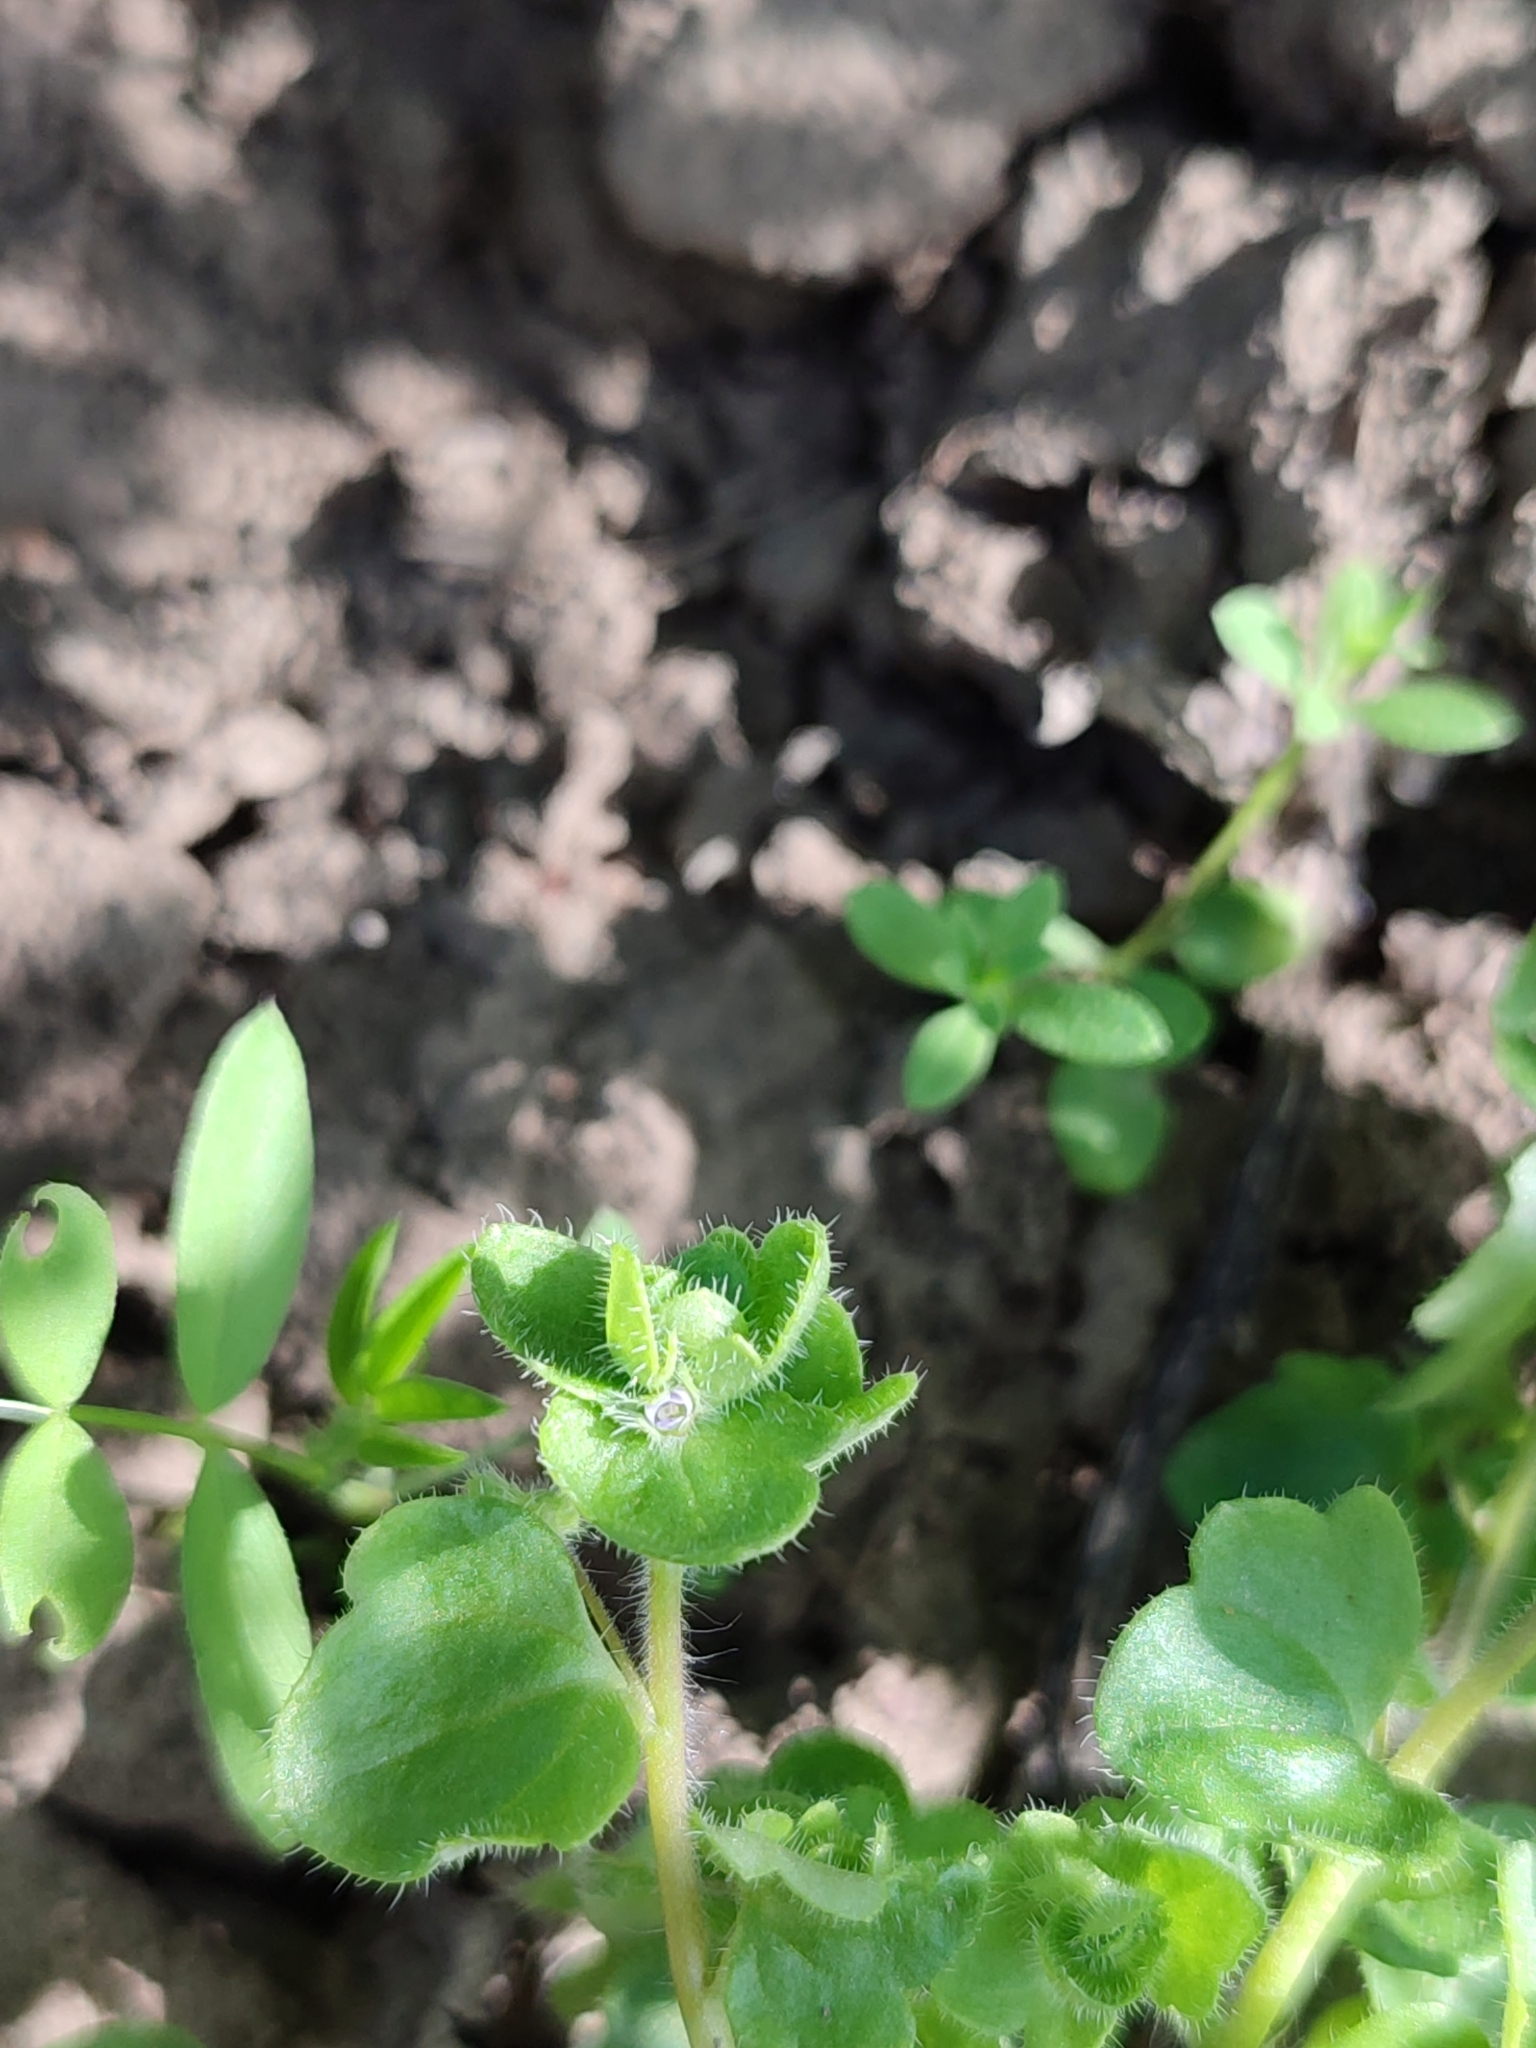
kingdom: Plantae
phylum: Tracheophyta
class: Magnoliopsida
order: Lamiales
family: Plantaginaceae
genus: Veronica
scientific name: Veronica hederifolia
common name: Ivy-leaved speedwell
